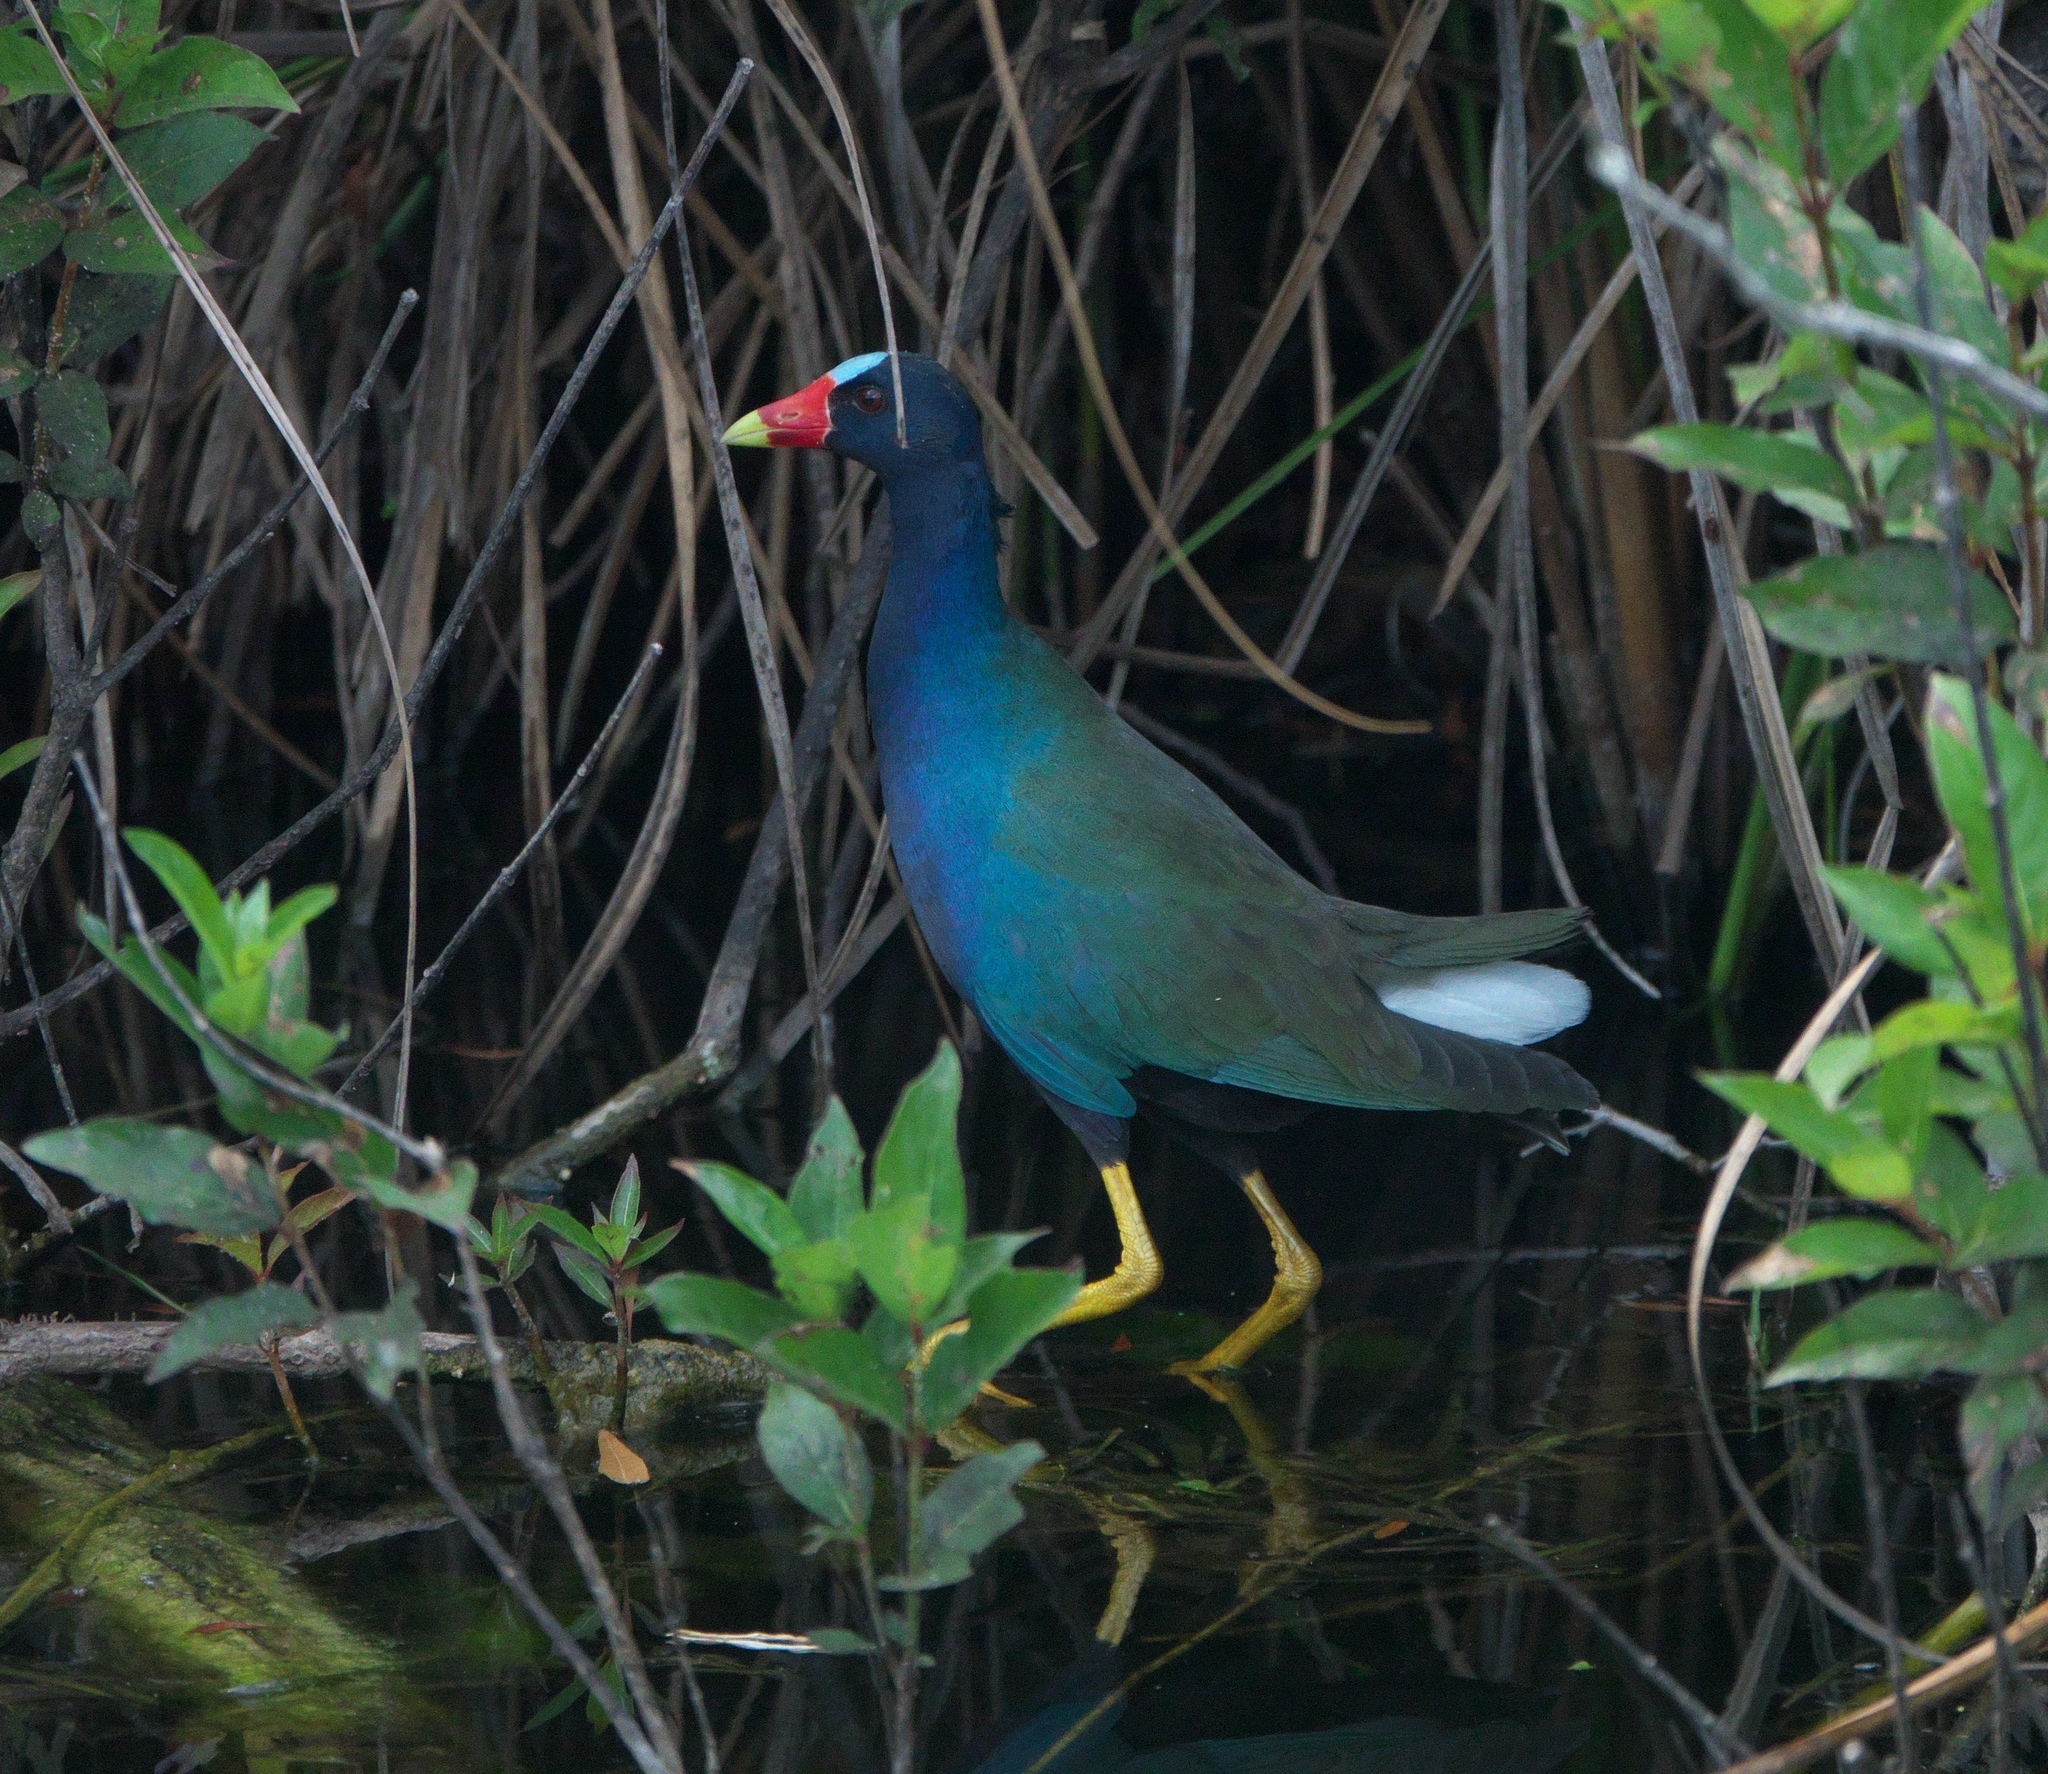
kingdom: Animalia
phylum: Chordata
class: Aves
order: Gruiformes
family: Rallidae
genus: Porphyrio
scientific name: Porphyrio martinica
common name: Purple gallinule
